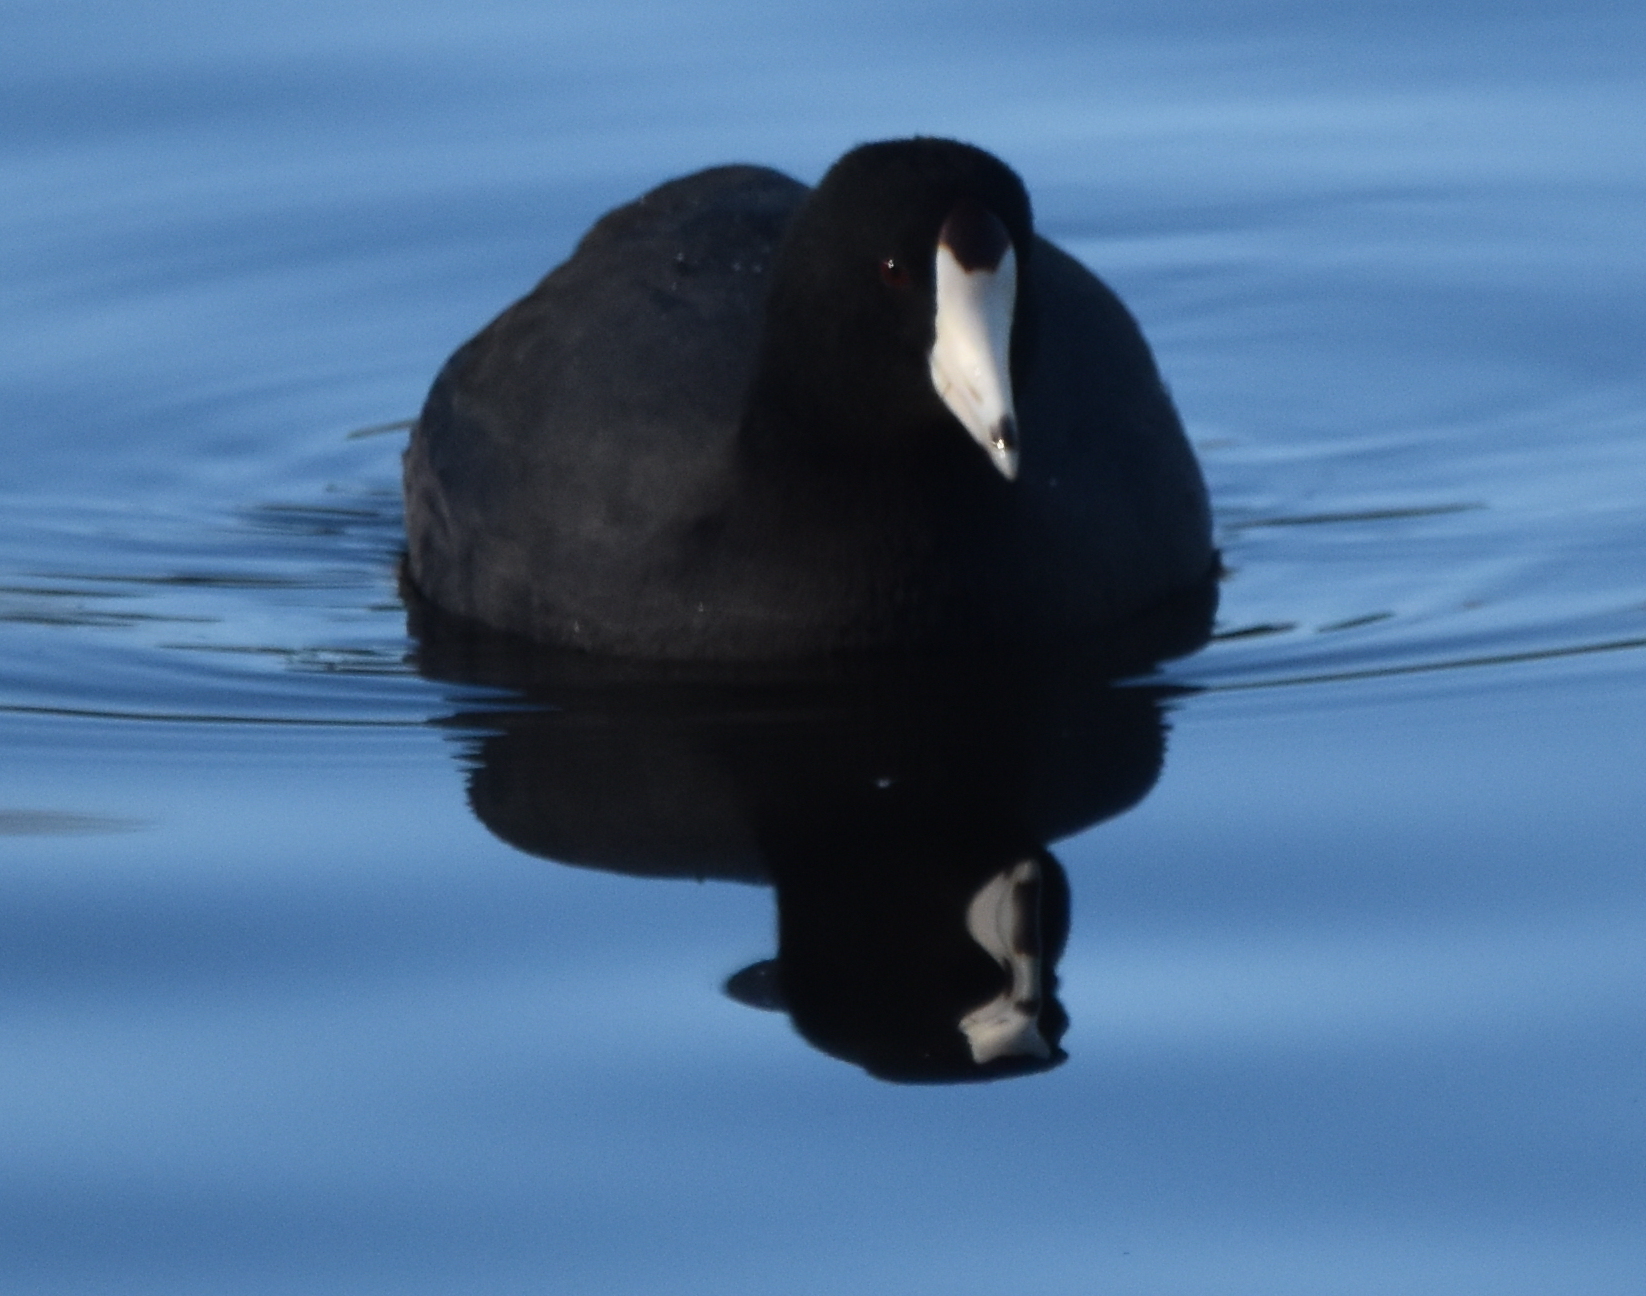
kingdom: Animalia
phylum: Chordata
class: Aves
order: Gruiformes
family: Rallidae
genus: Fulica
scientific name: Fulica americana
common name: American coot
